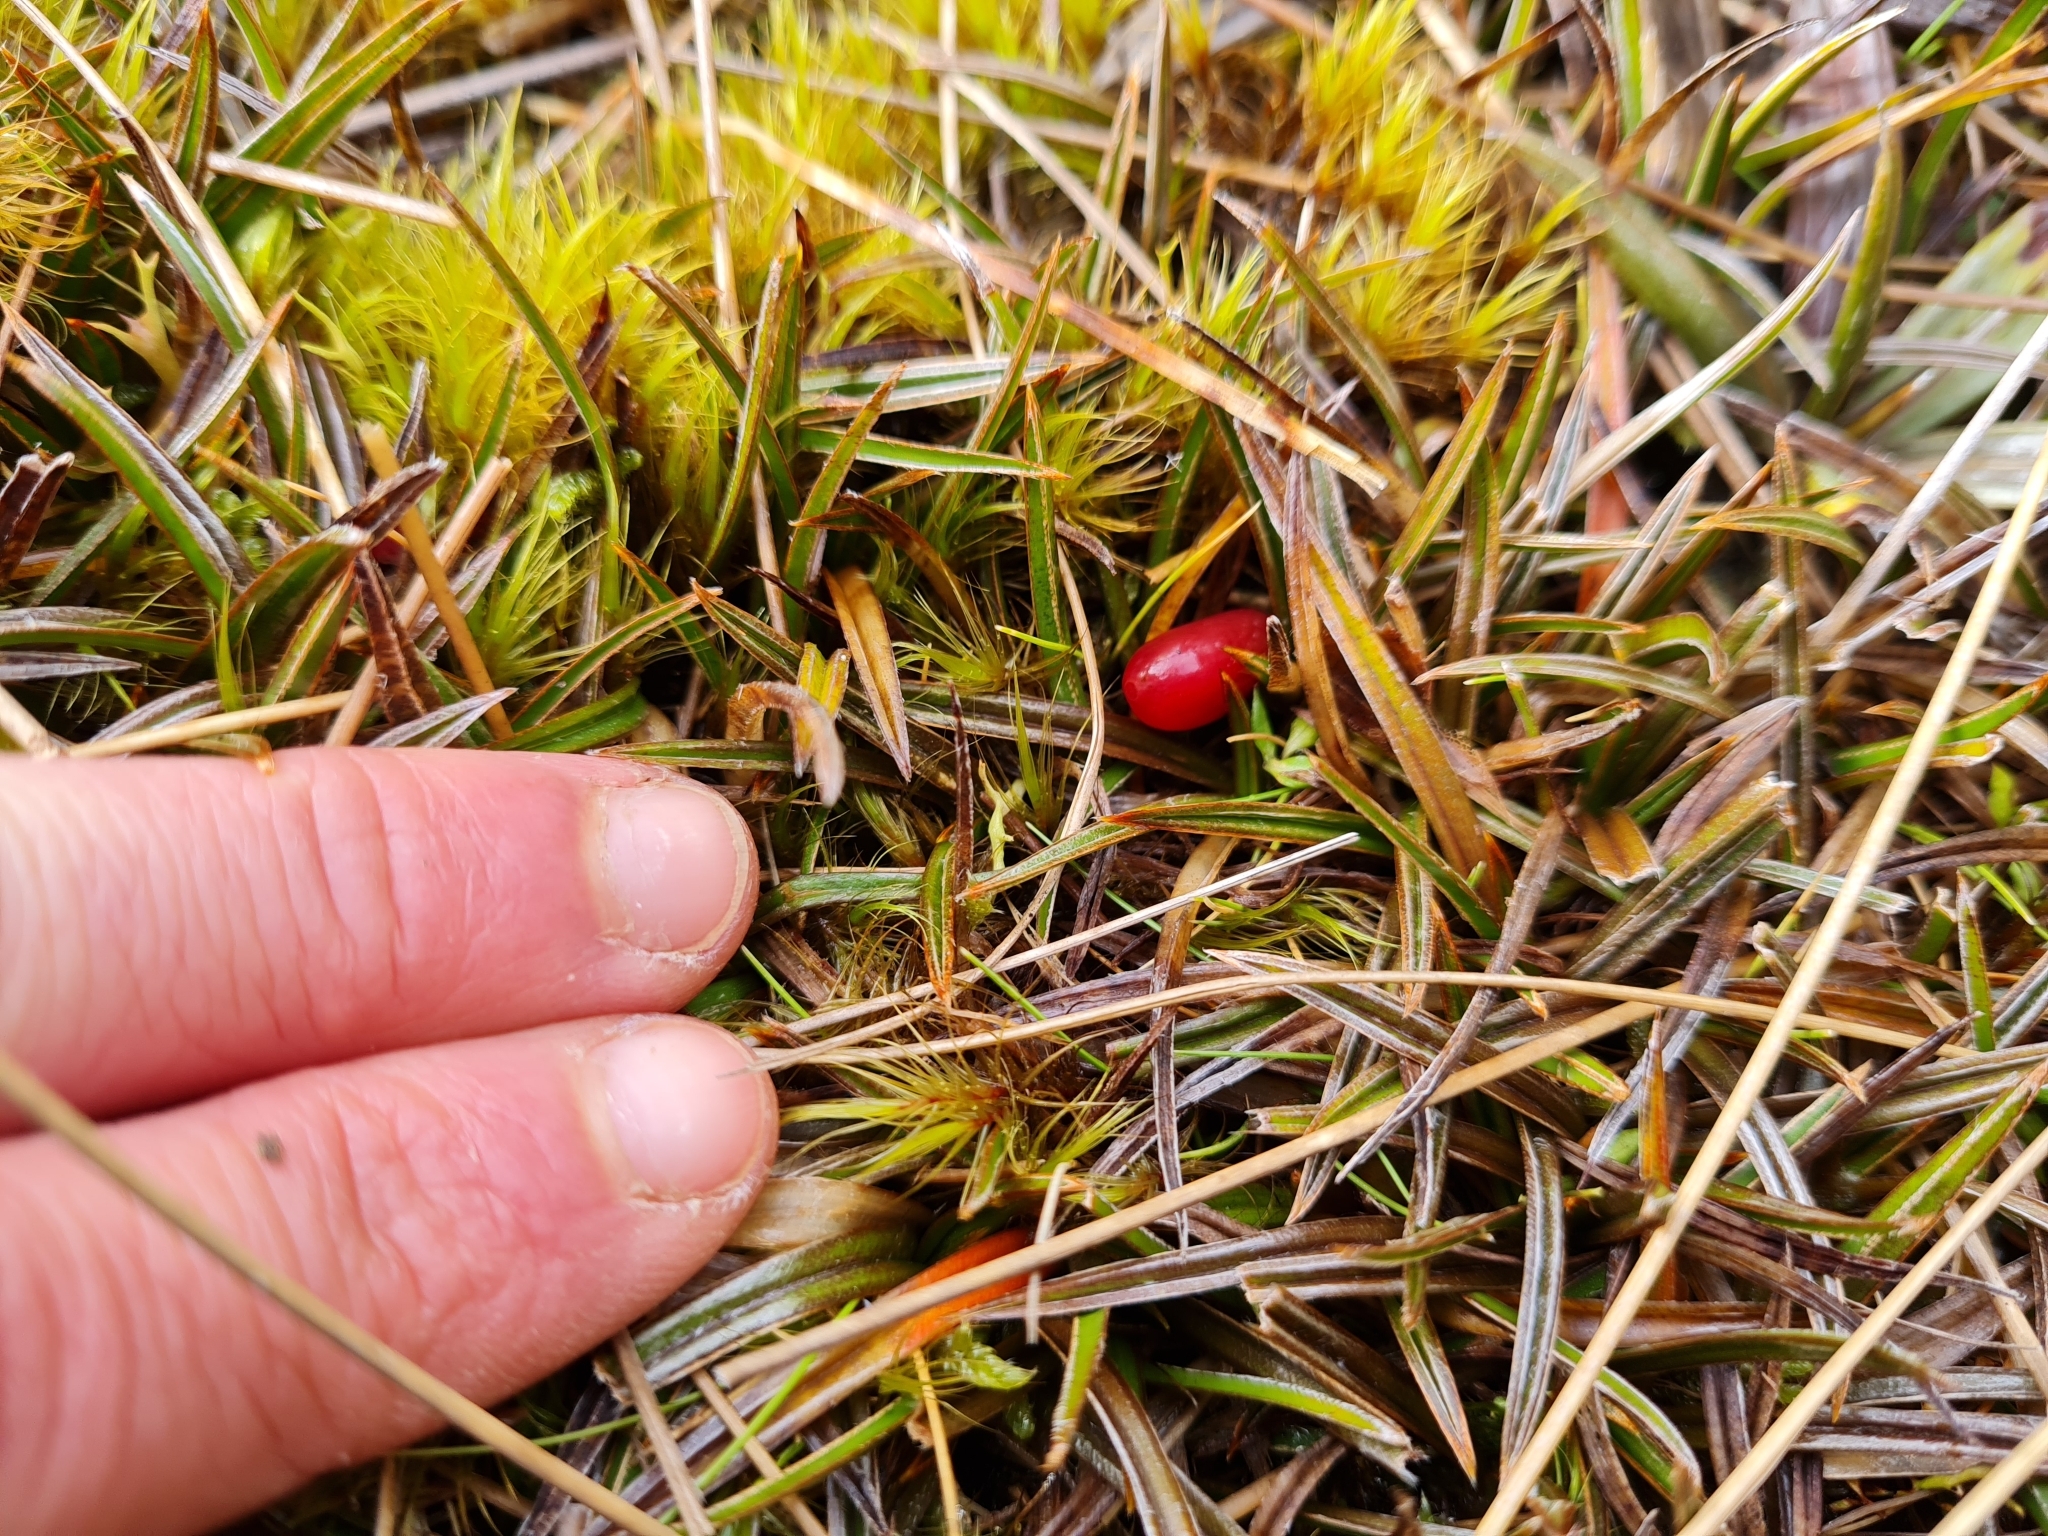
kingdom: Plantae
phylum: Tracheophyta
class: Liliopsida
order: Asparagales
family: Asteliaceae
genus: Astelia
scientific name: Astelia linearis
